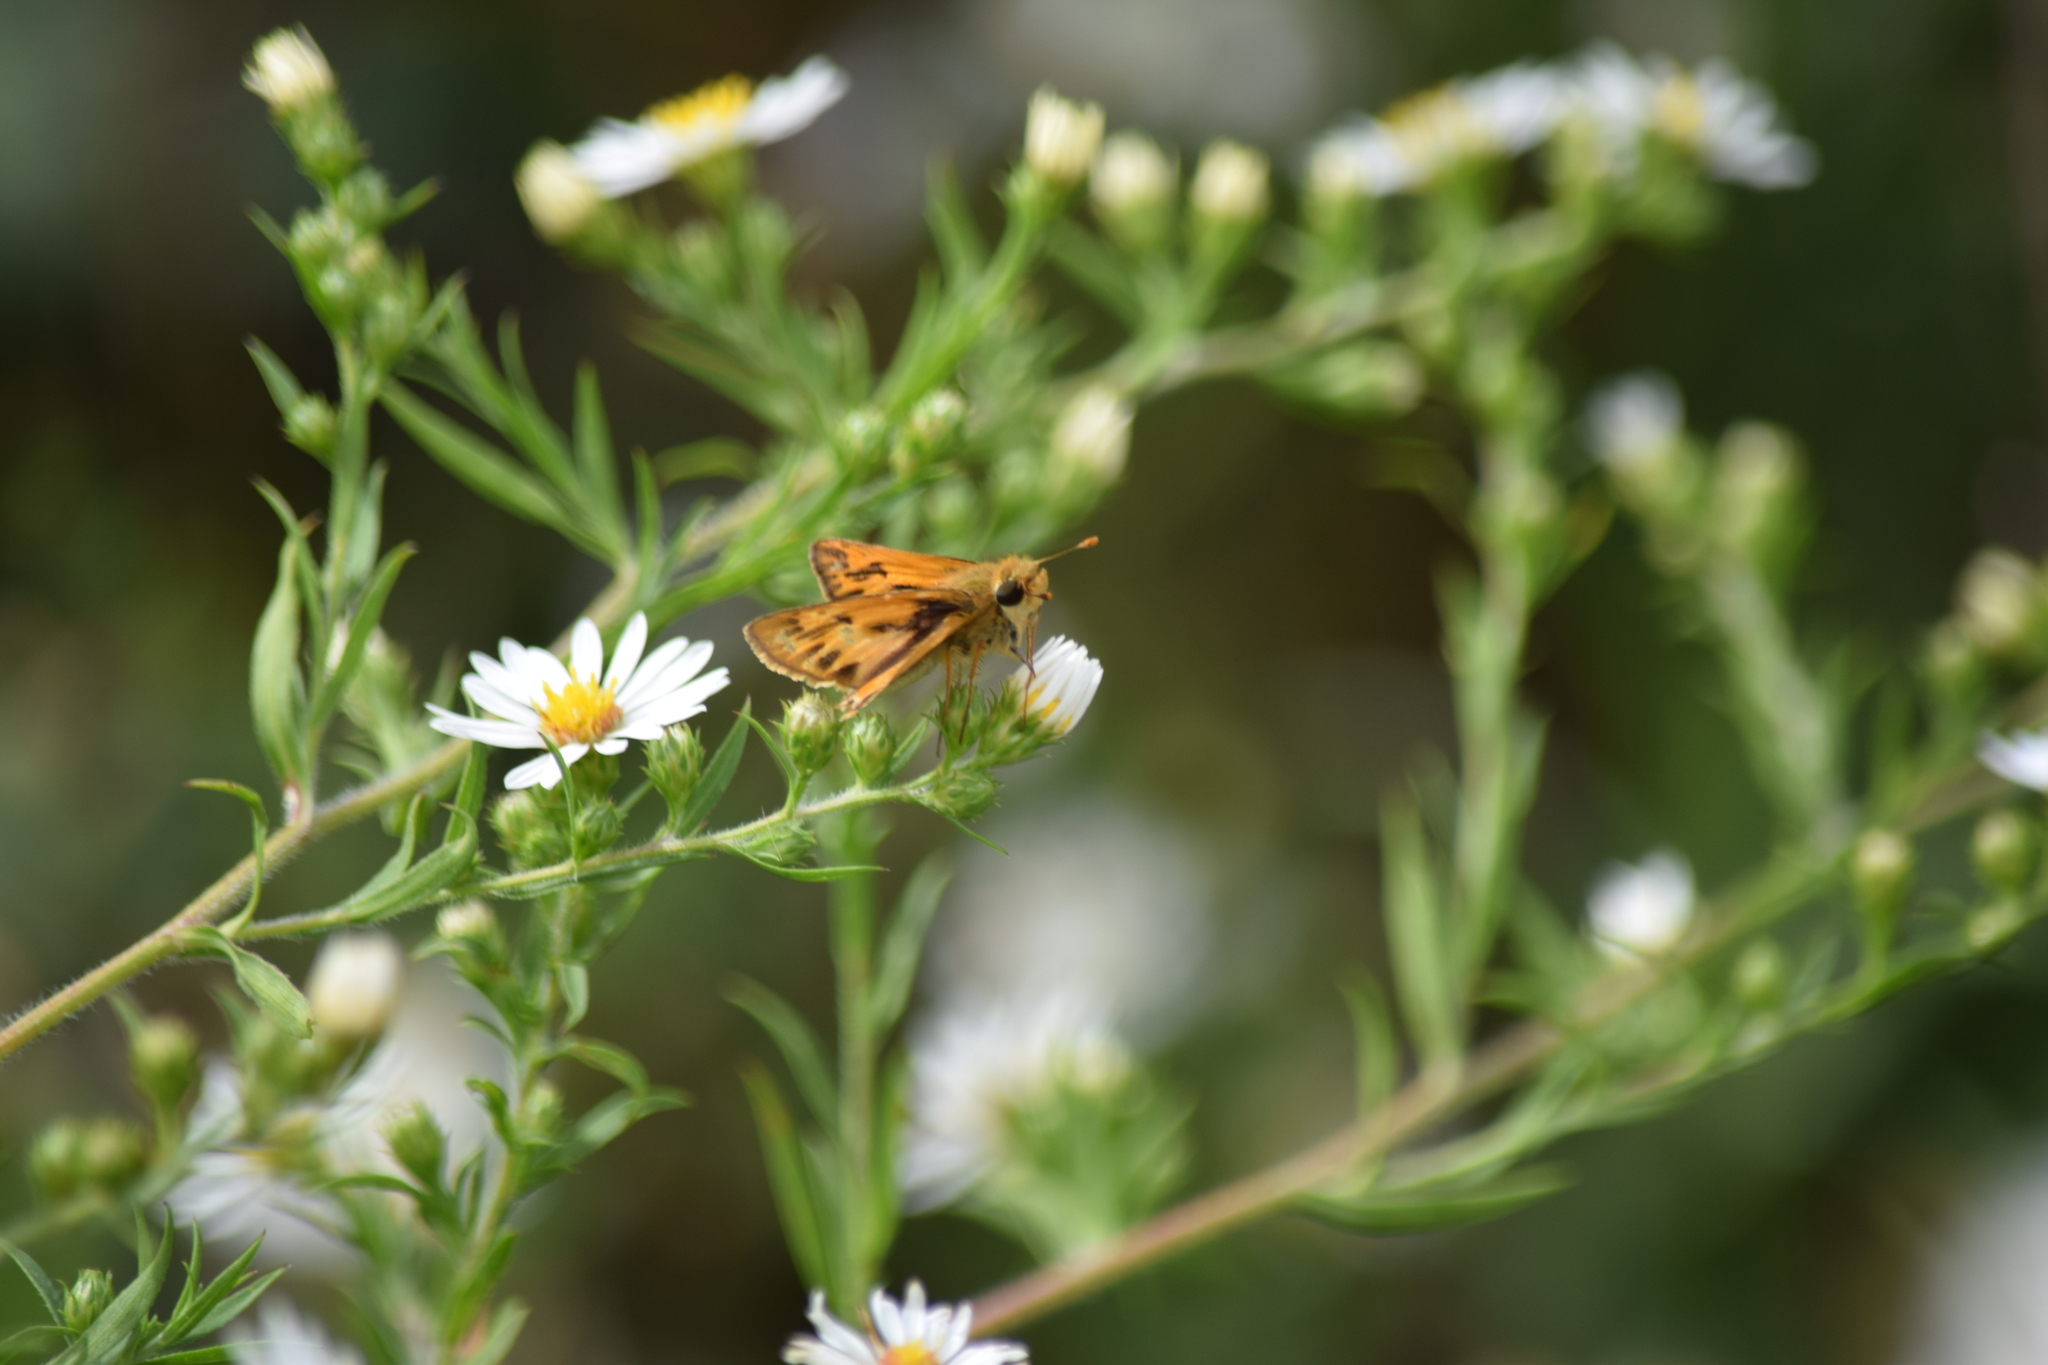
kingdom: Animalia
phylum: Arthropoda
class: Insecta
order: Lepidoptera
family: Hesperiidae
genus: Hylephila
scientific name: Hylephila phyleus
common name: Fiery skipper
